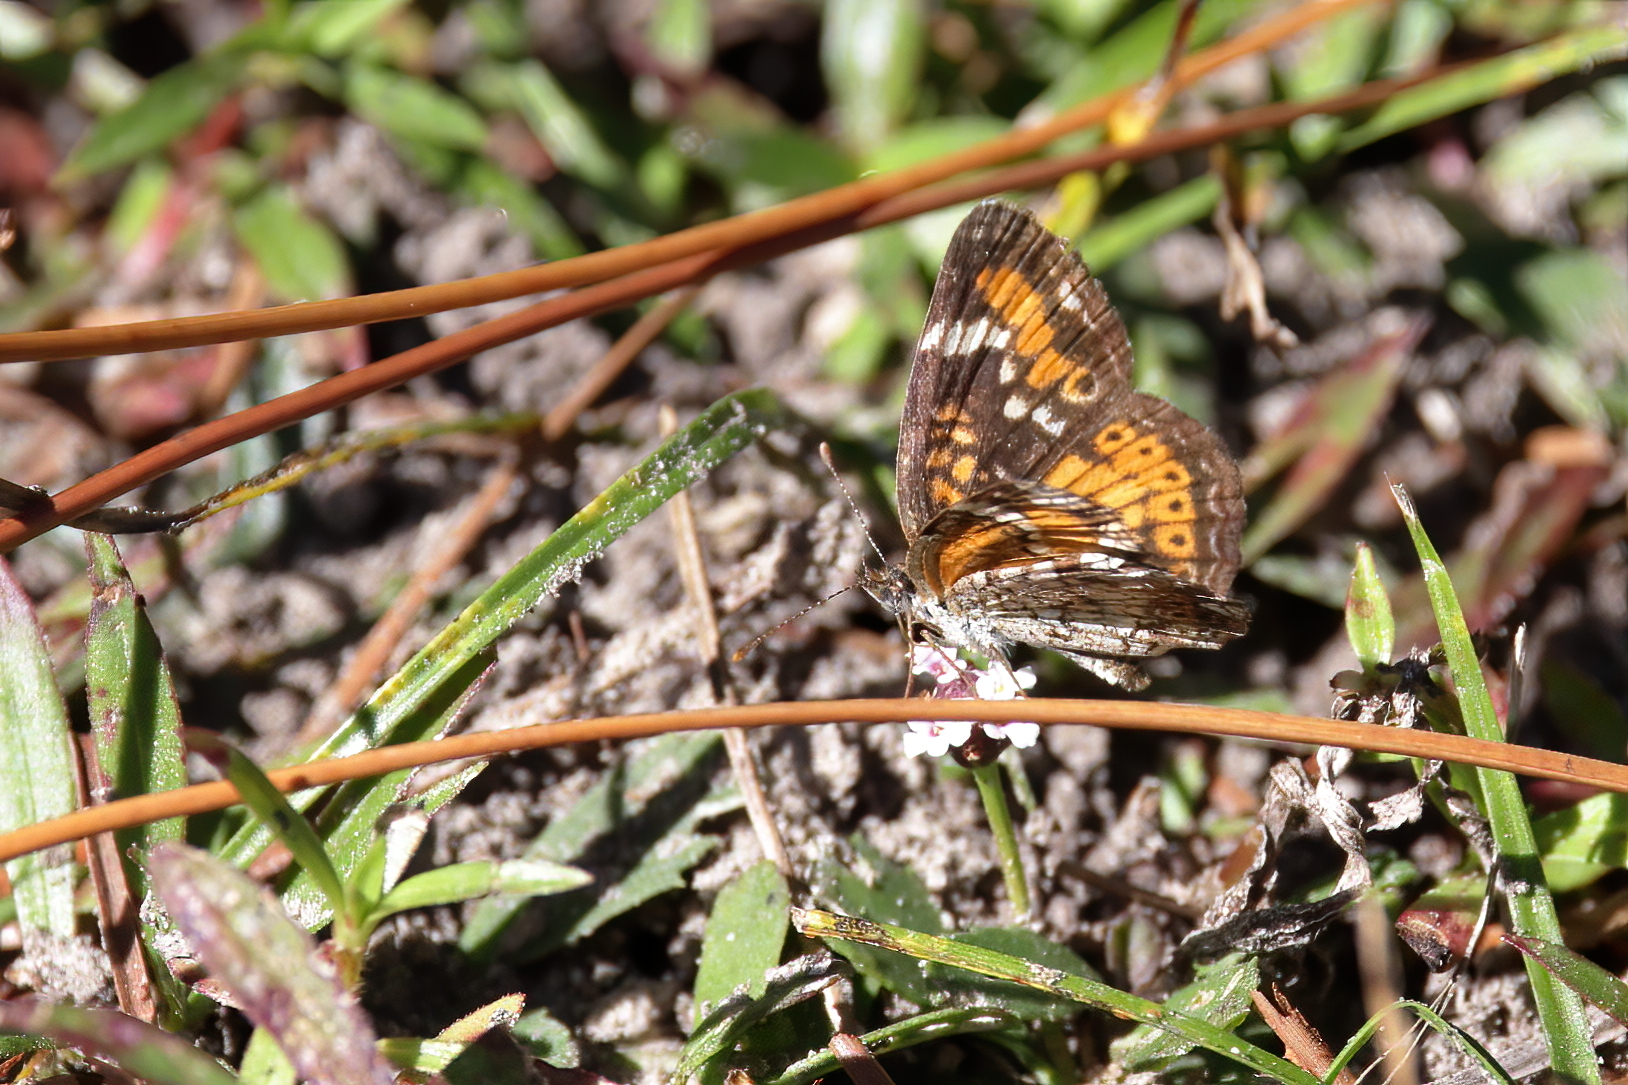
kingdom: Animalia
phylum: Arthropoda
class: Insecta
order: Lepidoptera
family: Nymphalidae
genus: Phyciodes
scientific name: Phyciodes phaon
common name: Phaon crescent
